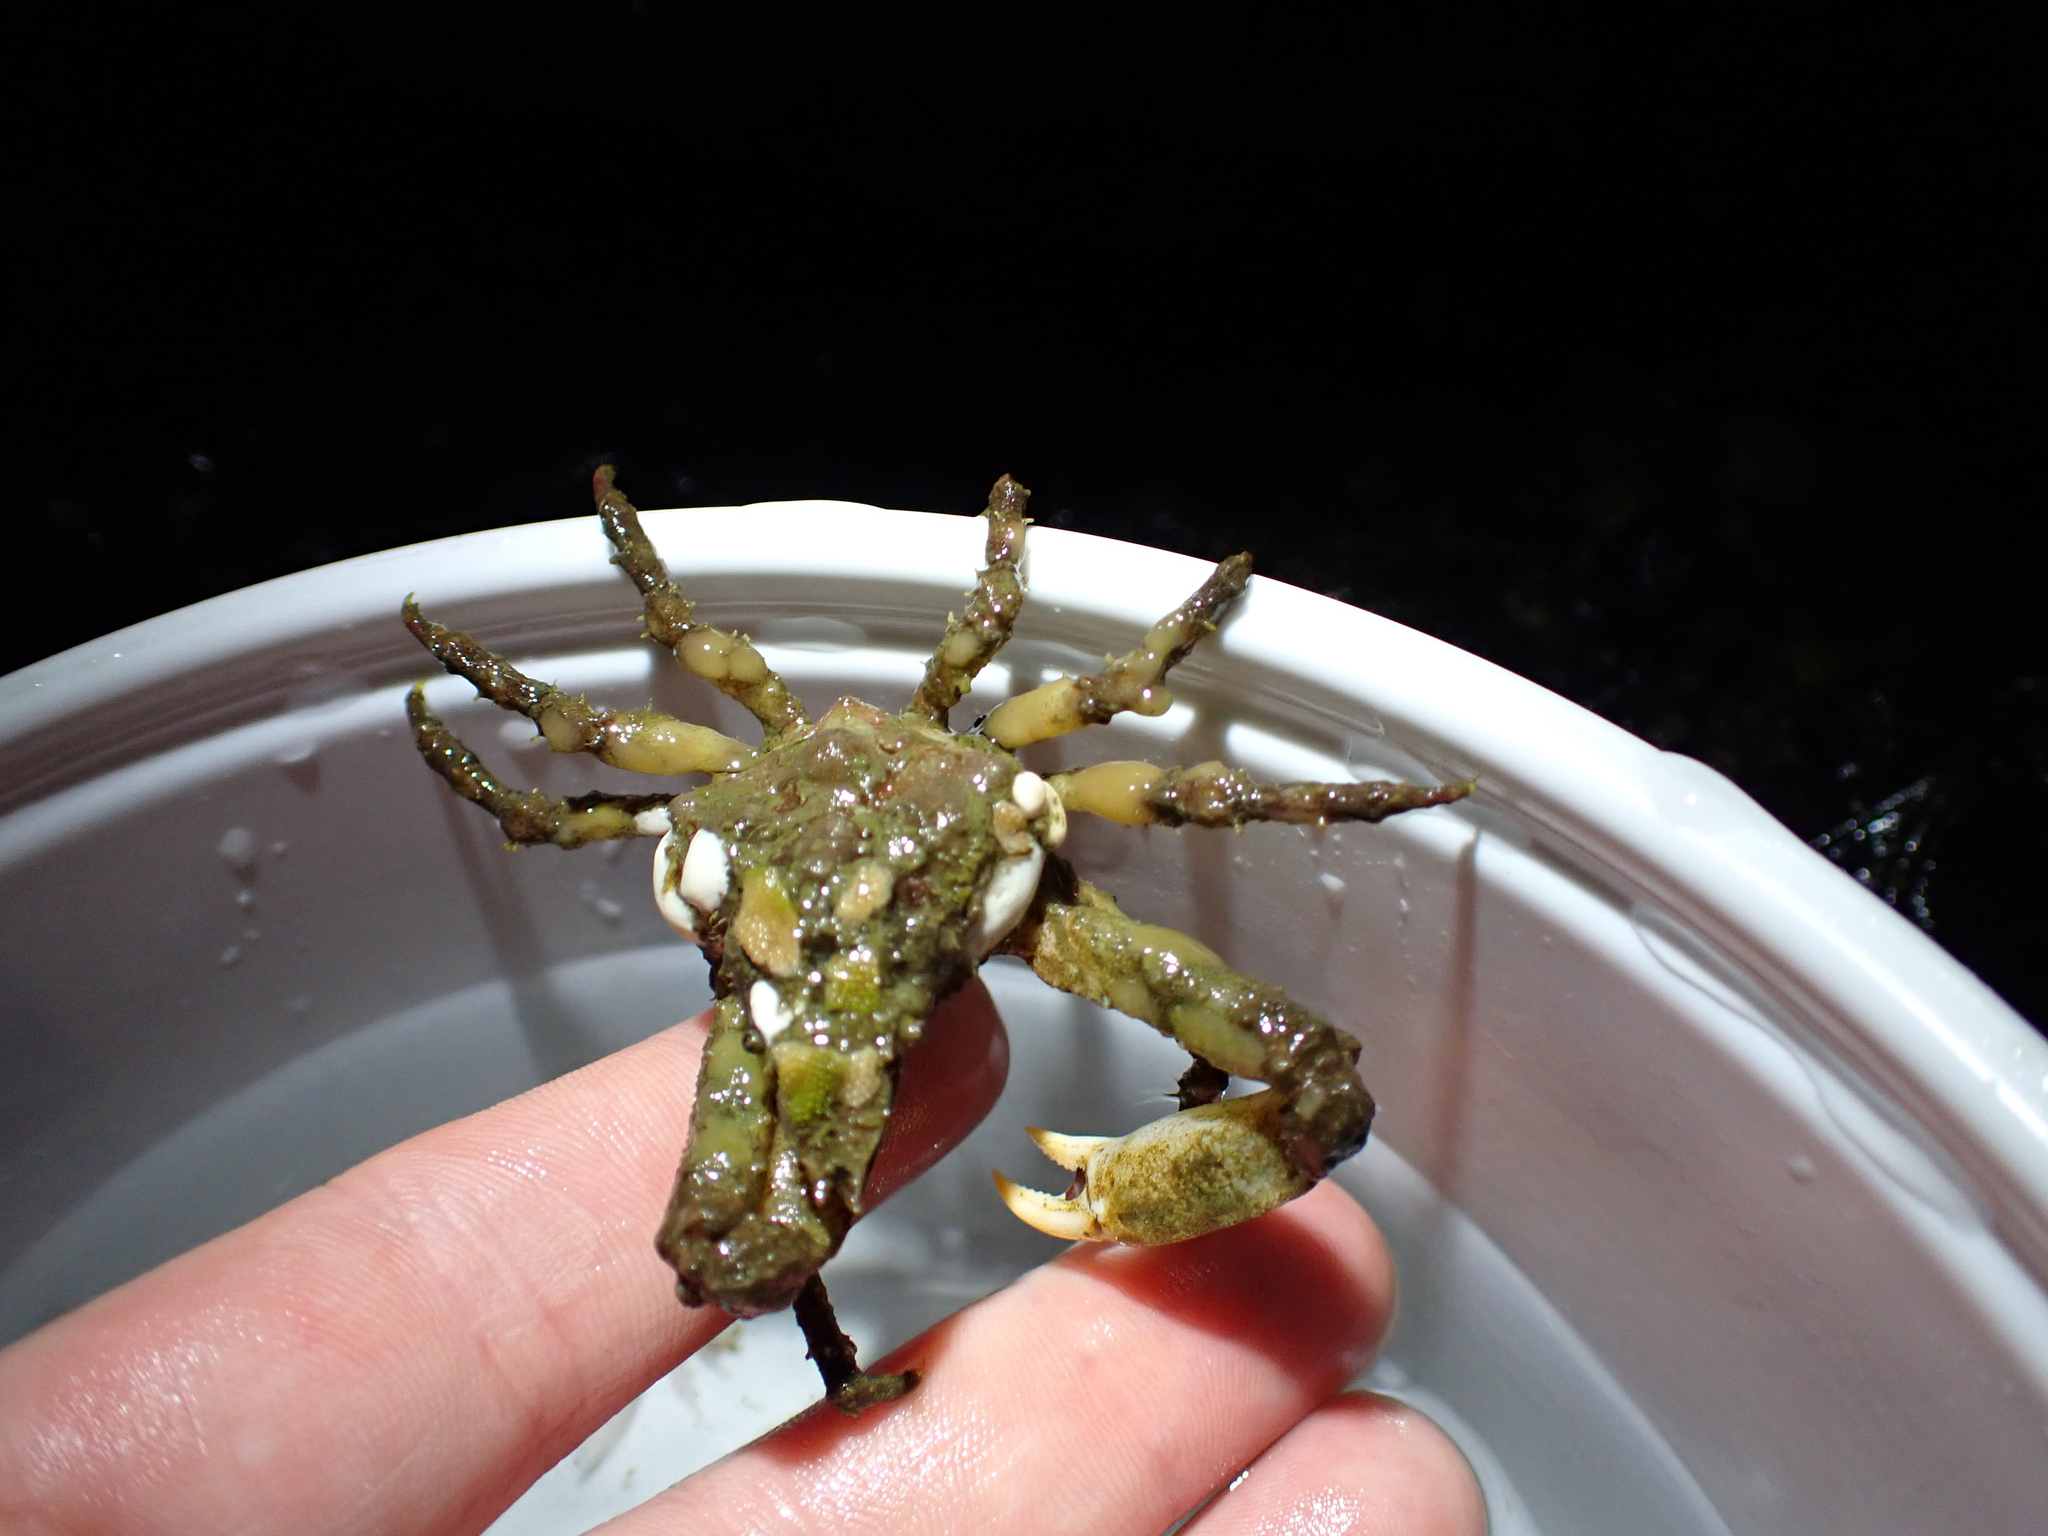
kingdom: Animalia
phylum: Arthropoda
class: Malacostraca
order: Decapoda
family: Epialtidae
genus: Scyra
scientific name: Scyra acutifrons
